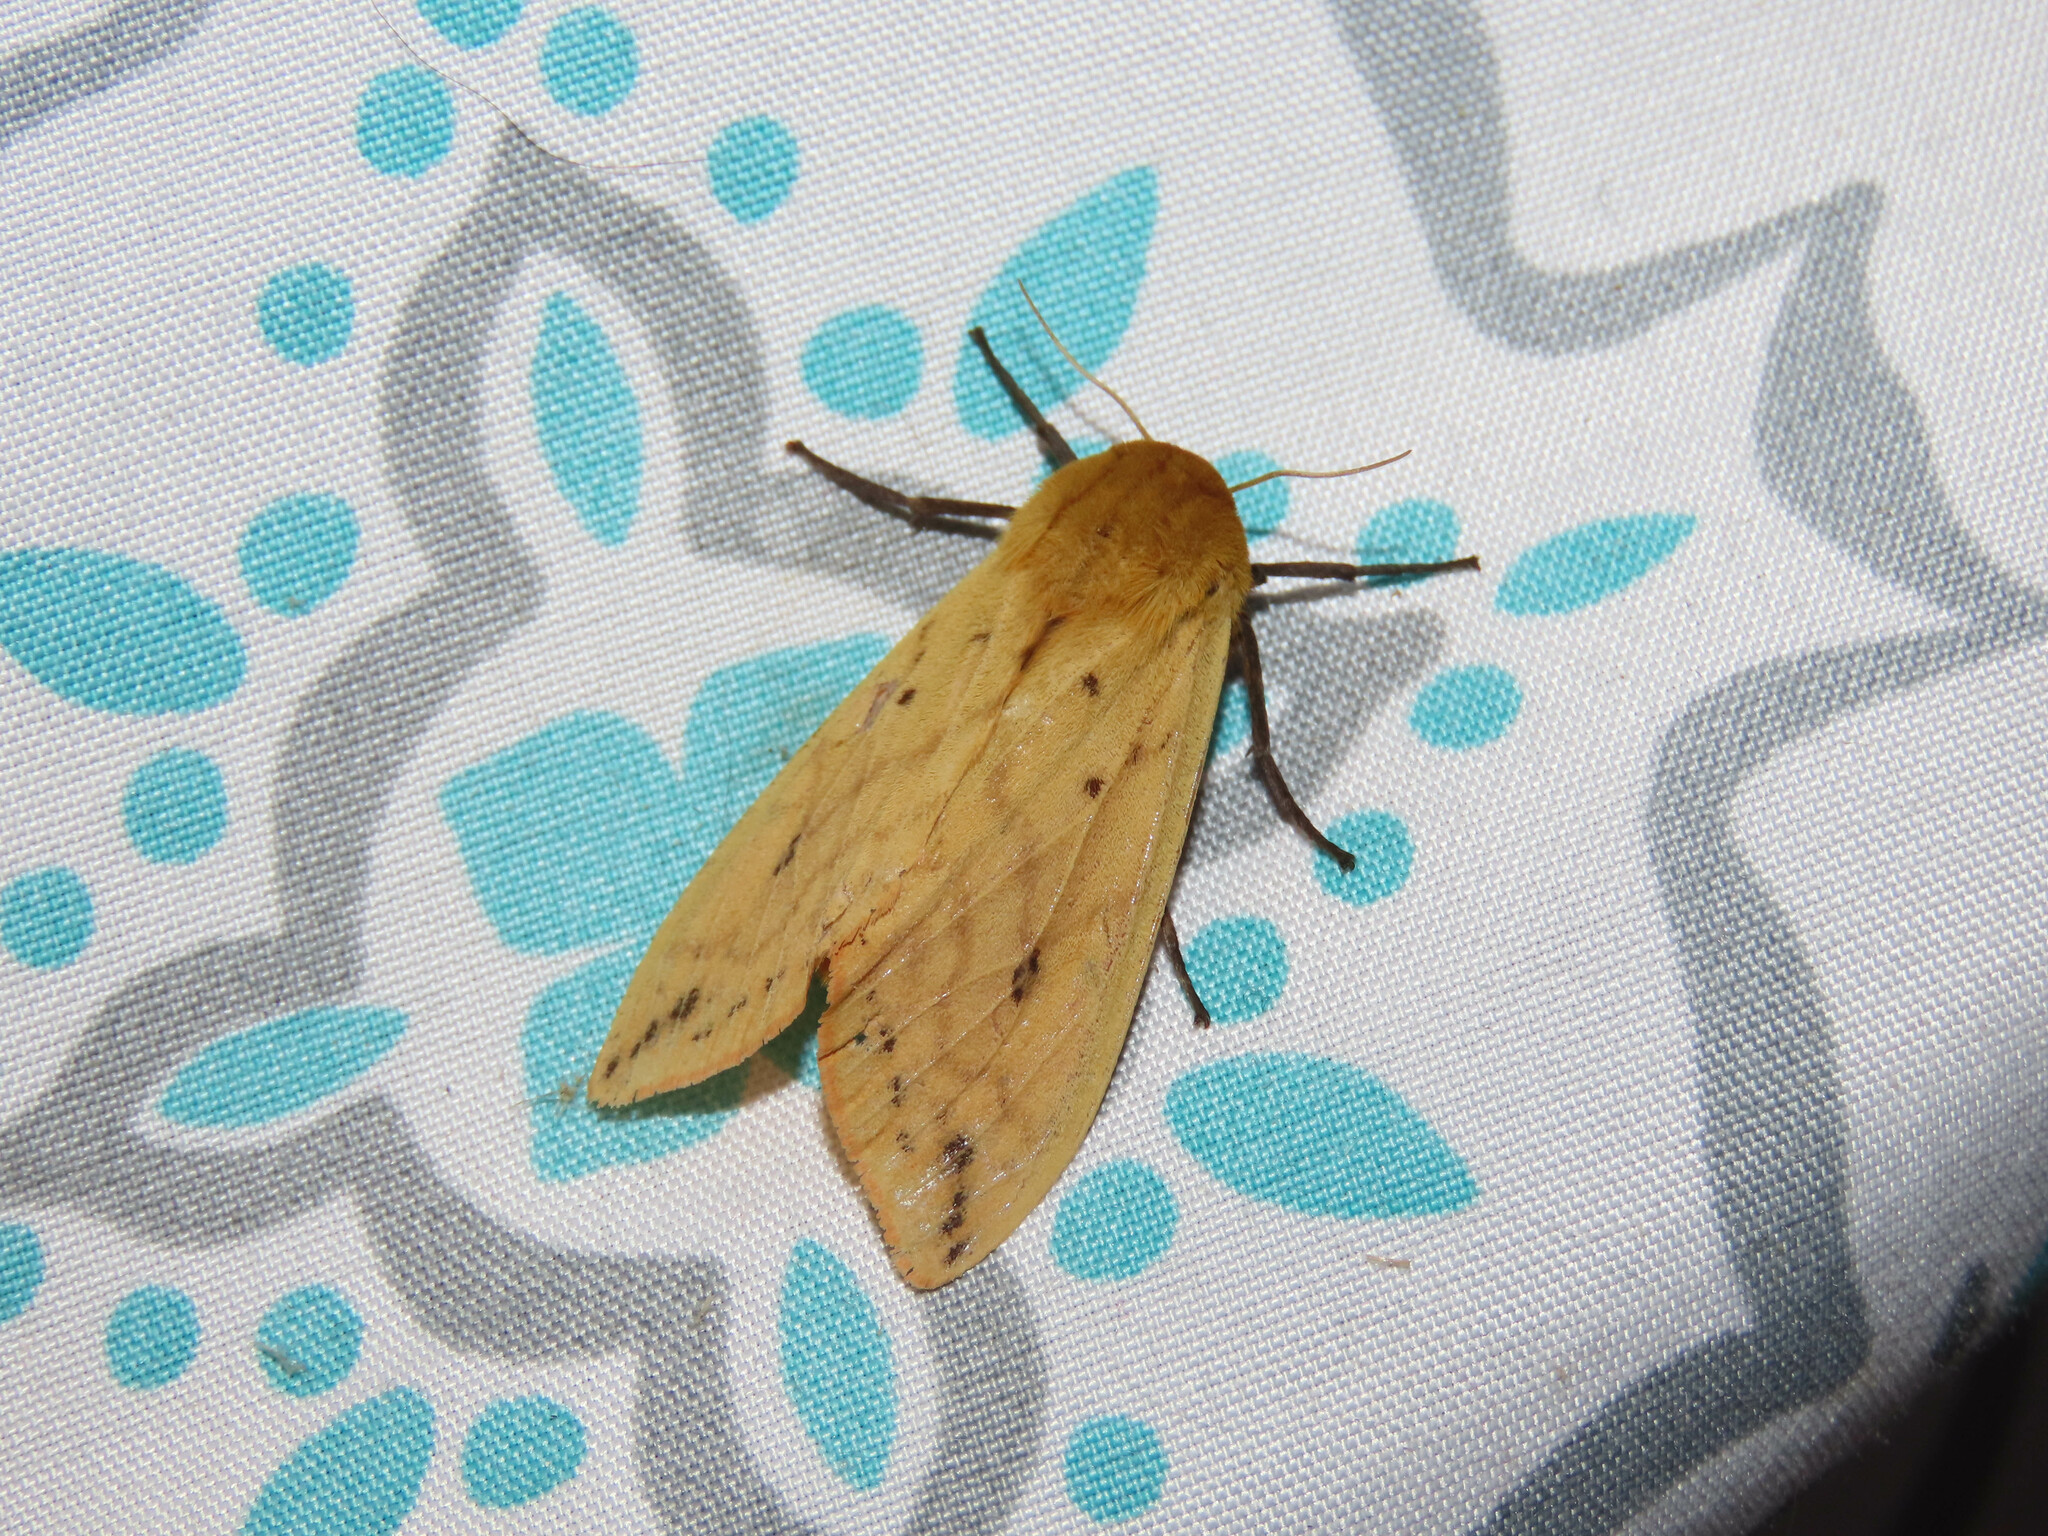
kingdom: Animalia
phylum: Arthropoda
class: Insecta
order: Lepidoptera
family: Erebidae
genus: Pyrrharctia
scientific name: Pyrrharctia isabella
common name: Isabella tiger moth
